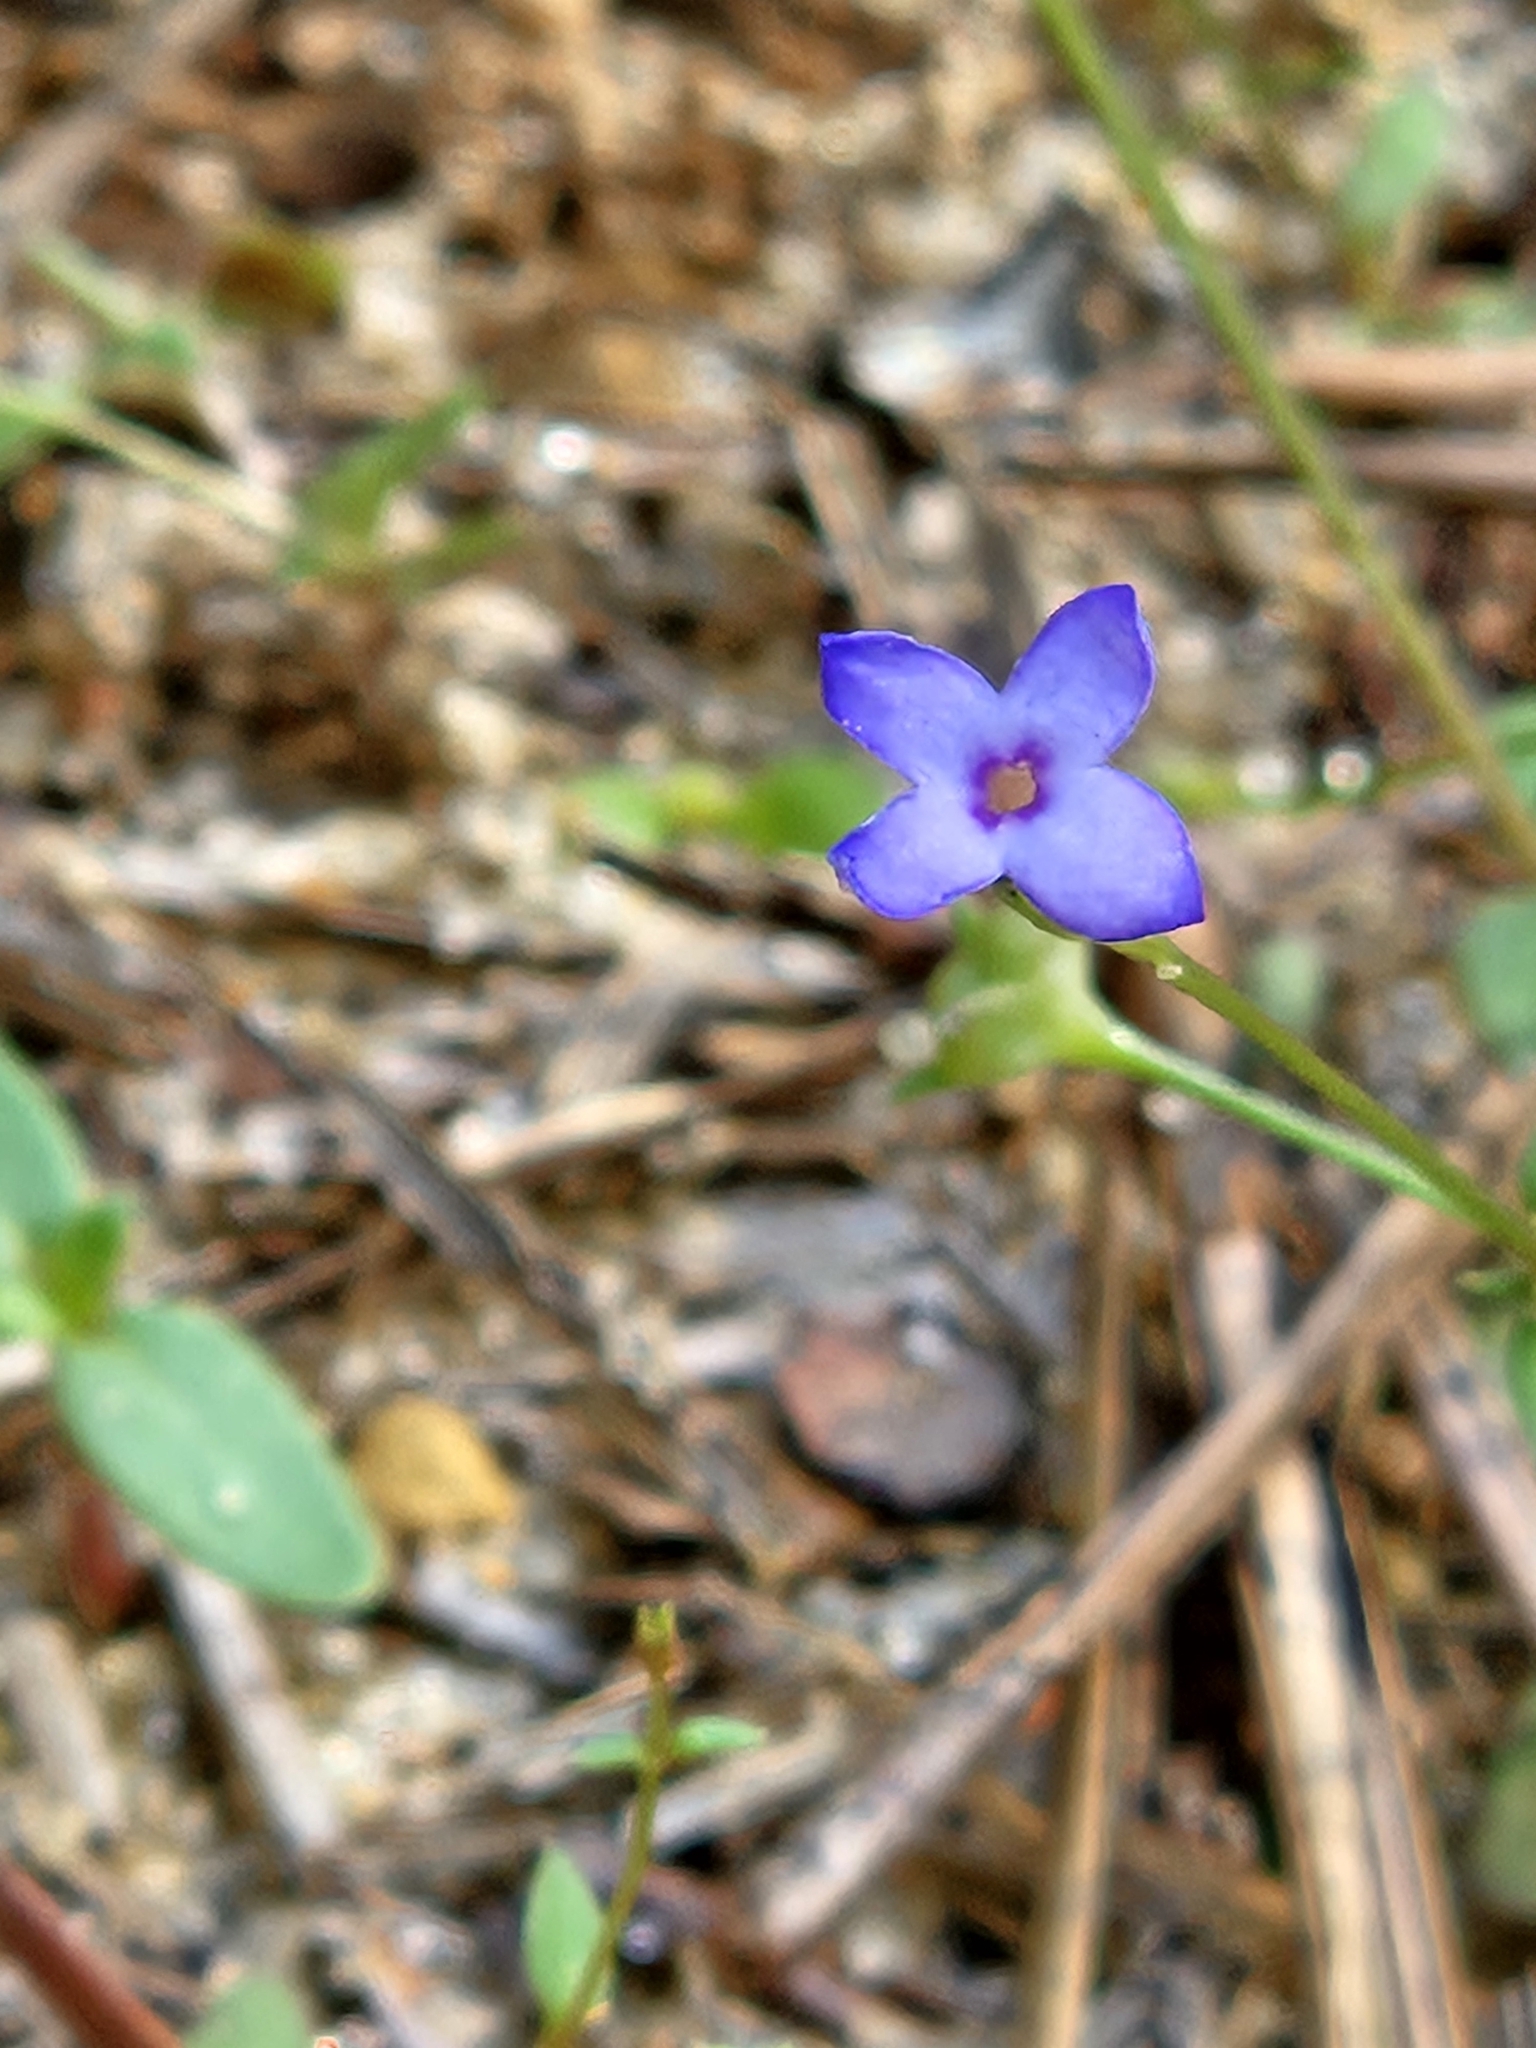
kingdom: Plantae
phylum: Tracheophyta
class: Magnoliopsida
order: Gentianales
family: Rubiaceae
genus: Houstonia
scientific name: Houstonia pusilla
